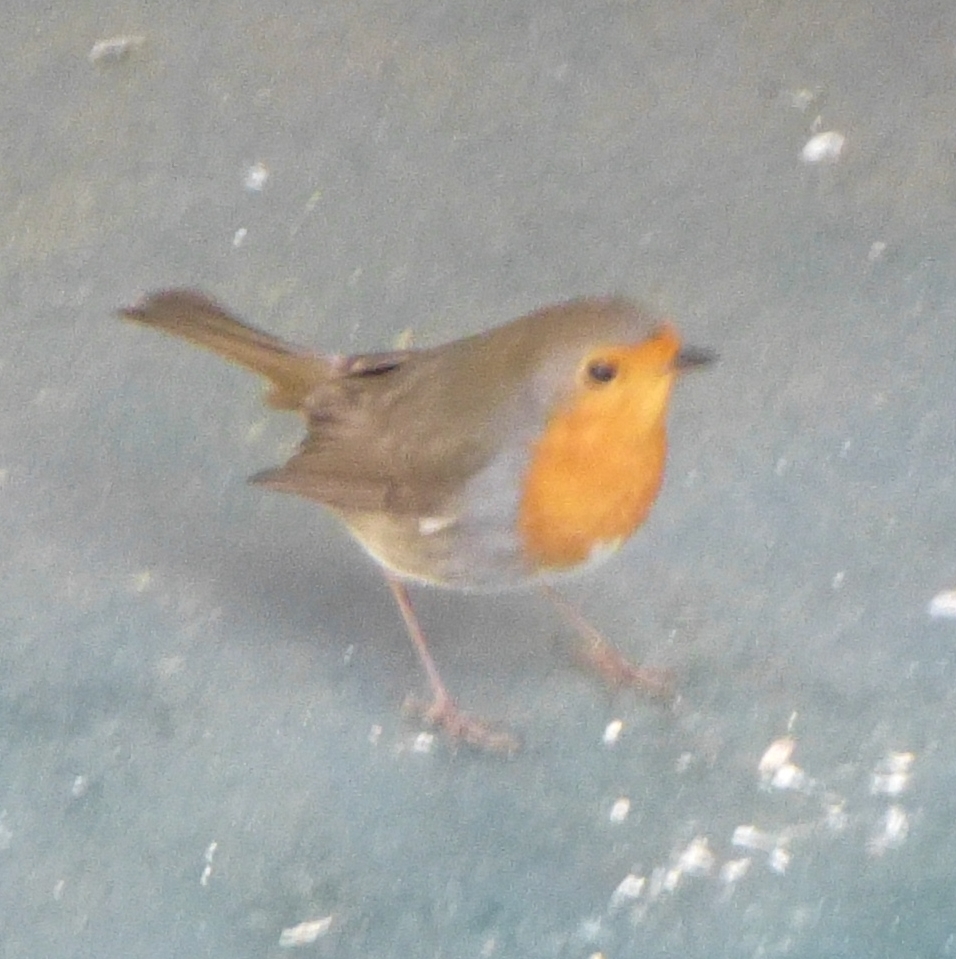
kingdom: Animalia
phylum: Chordata
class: Aves
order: Passeriformes
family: Muscicapidae
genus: Erithacus
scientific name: Erithacus rubecula
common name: European robin
